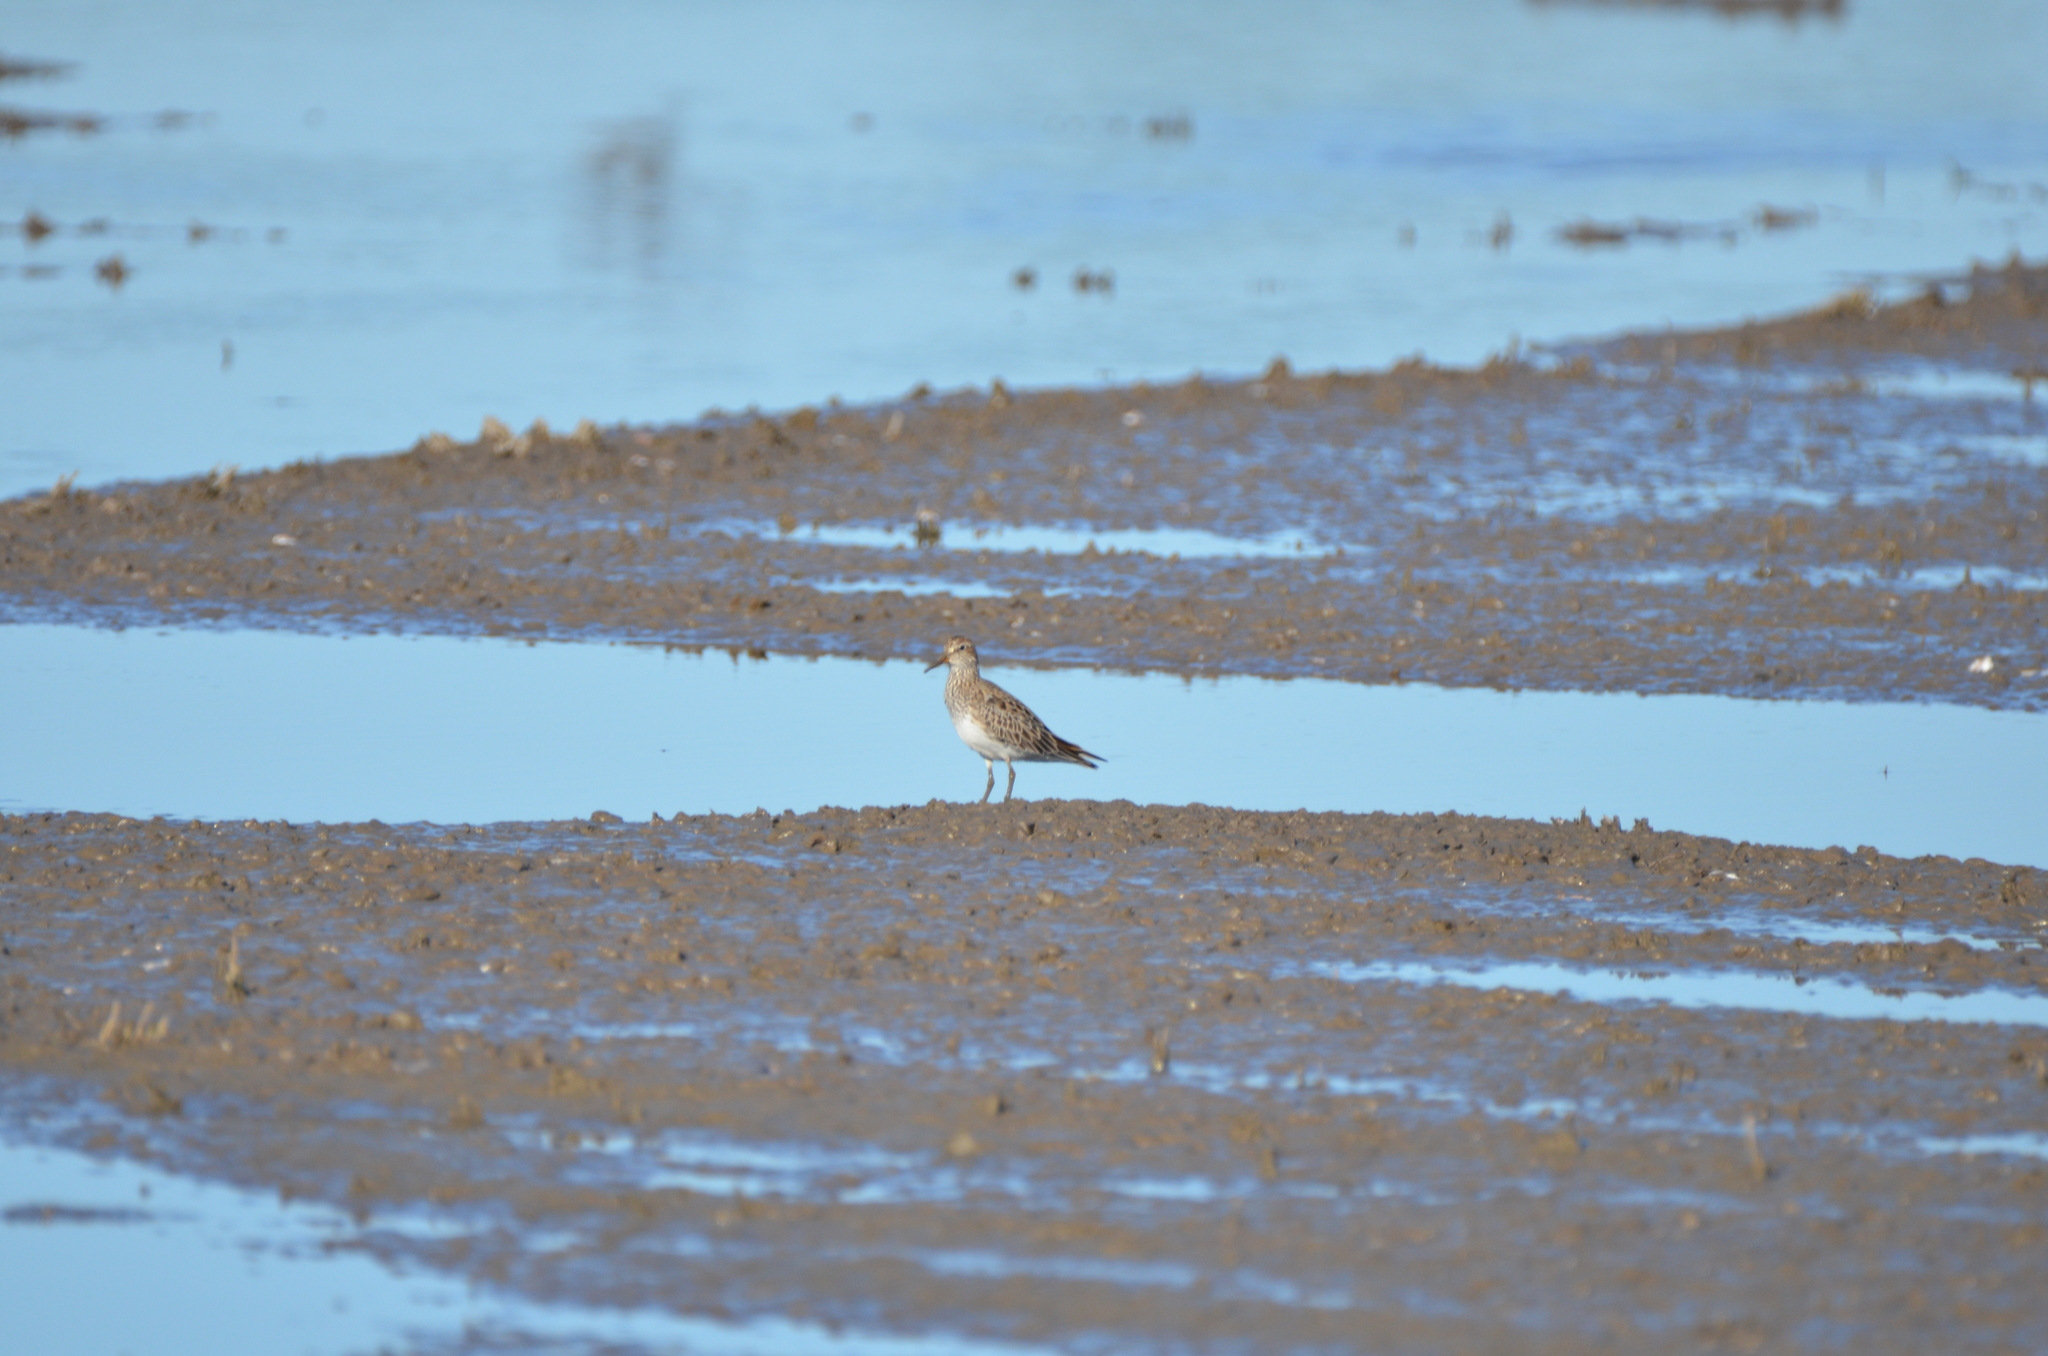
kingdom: Animalia
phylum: Chordata
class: Aves
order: Charadriiformes
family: Scolopacidae
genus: Calidris
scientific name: Calidris melanotos
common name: Pectoral sandpiper
